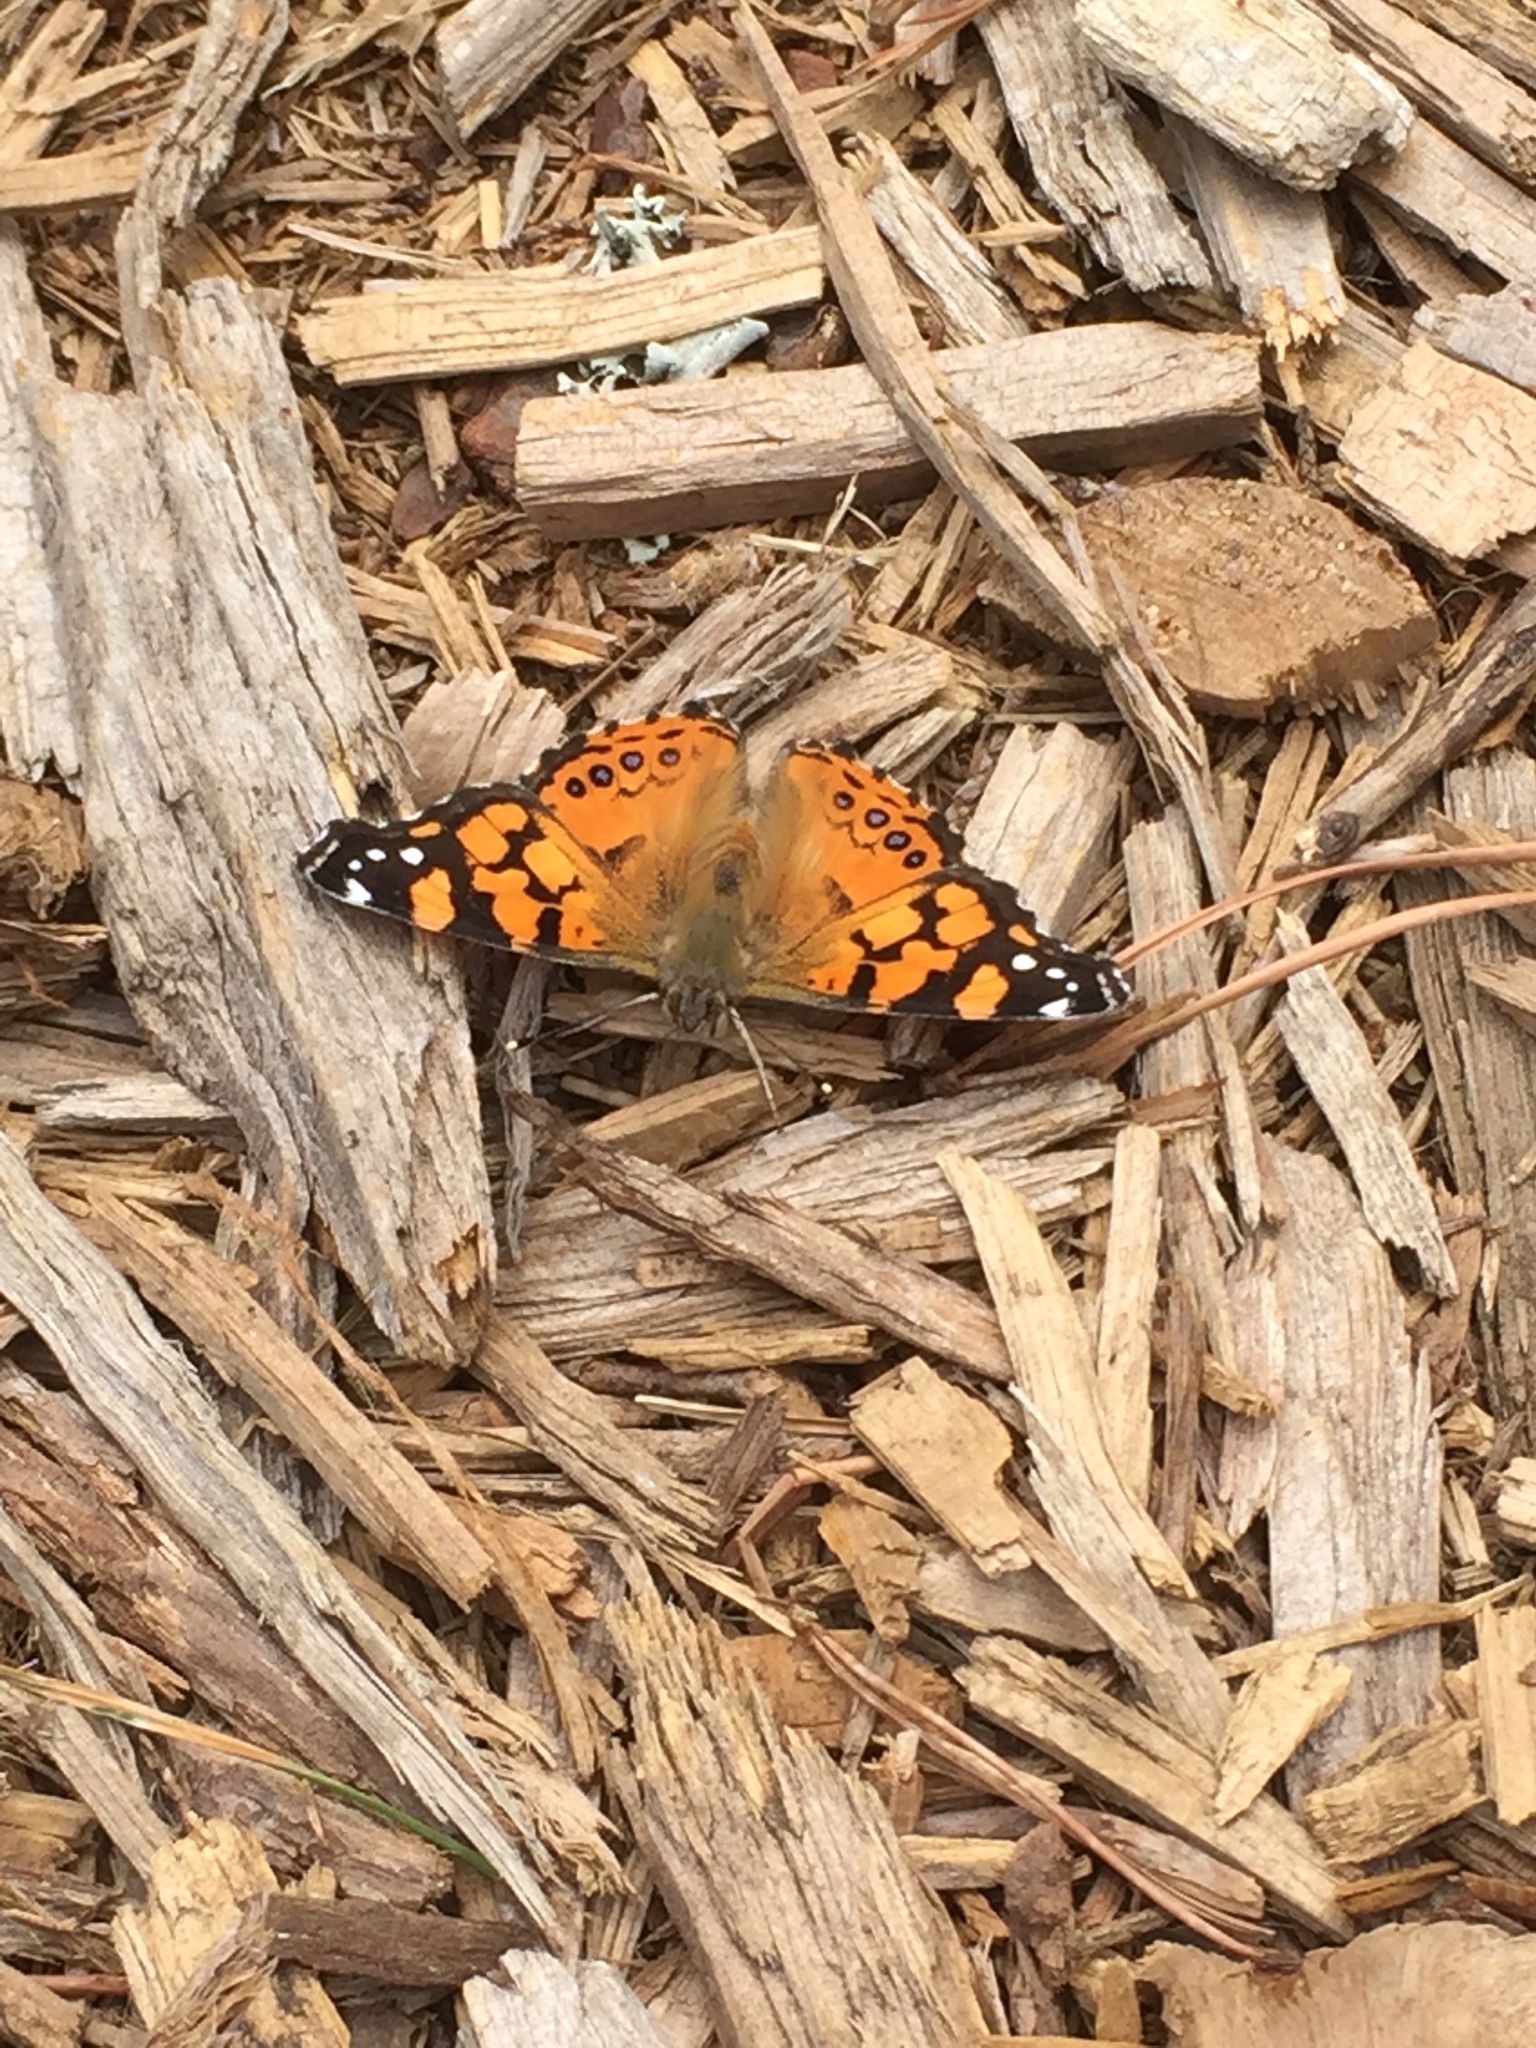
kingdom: Animalia
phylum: Arthropoda
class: Insecta
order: Lepidoptera
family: Nymphalidae
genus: Vanessa
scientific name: Vanessa annabella
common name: West coast lady
